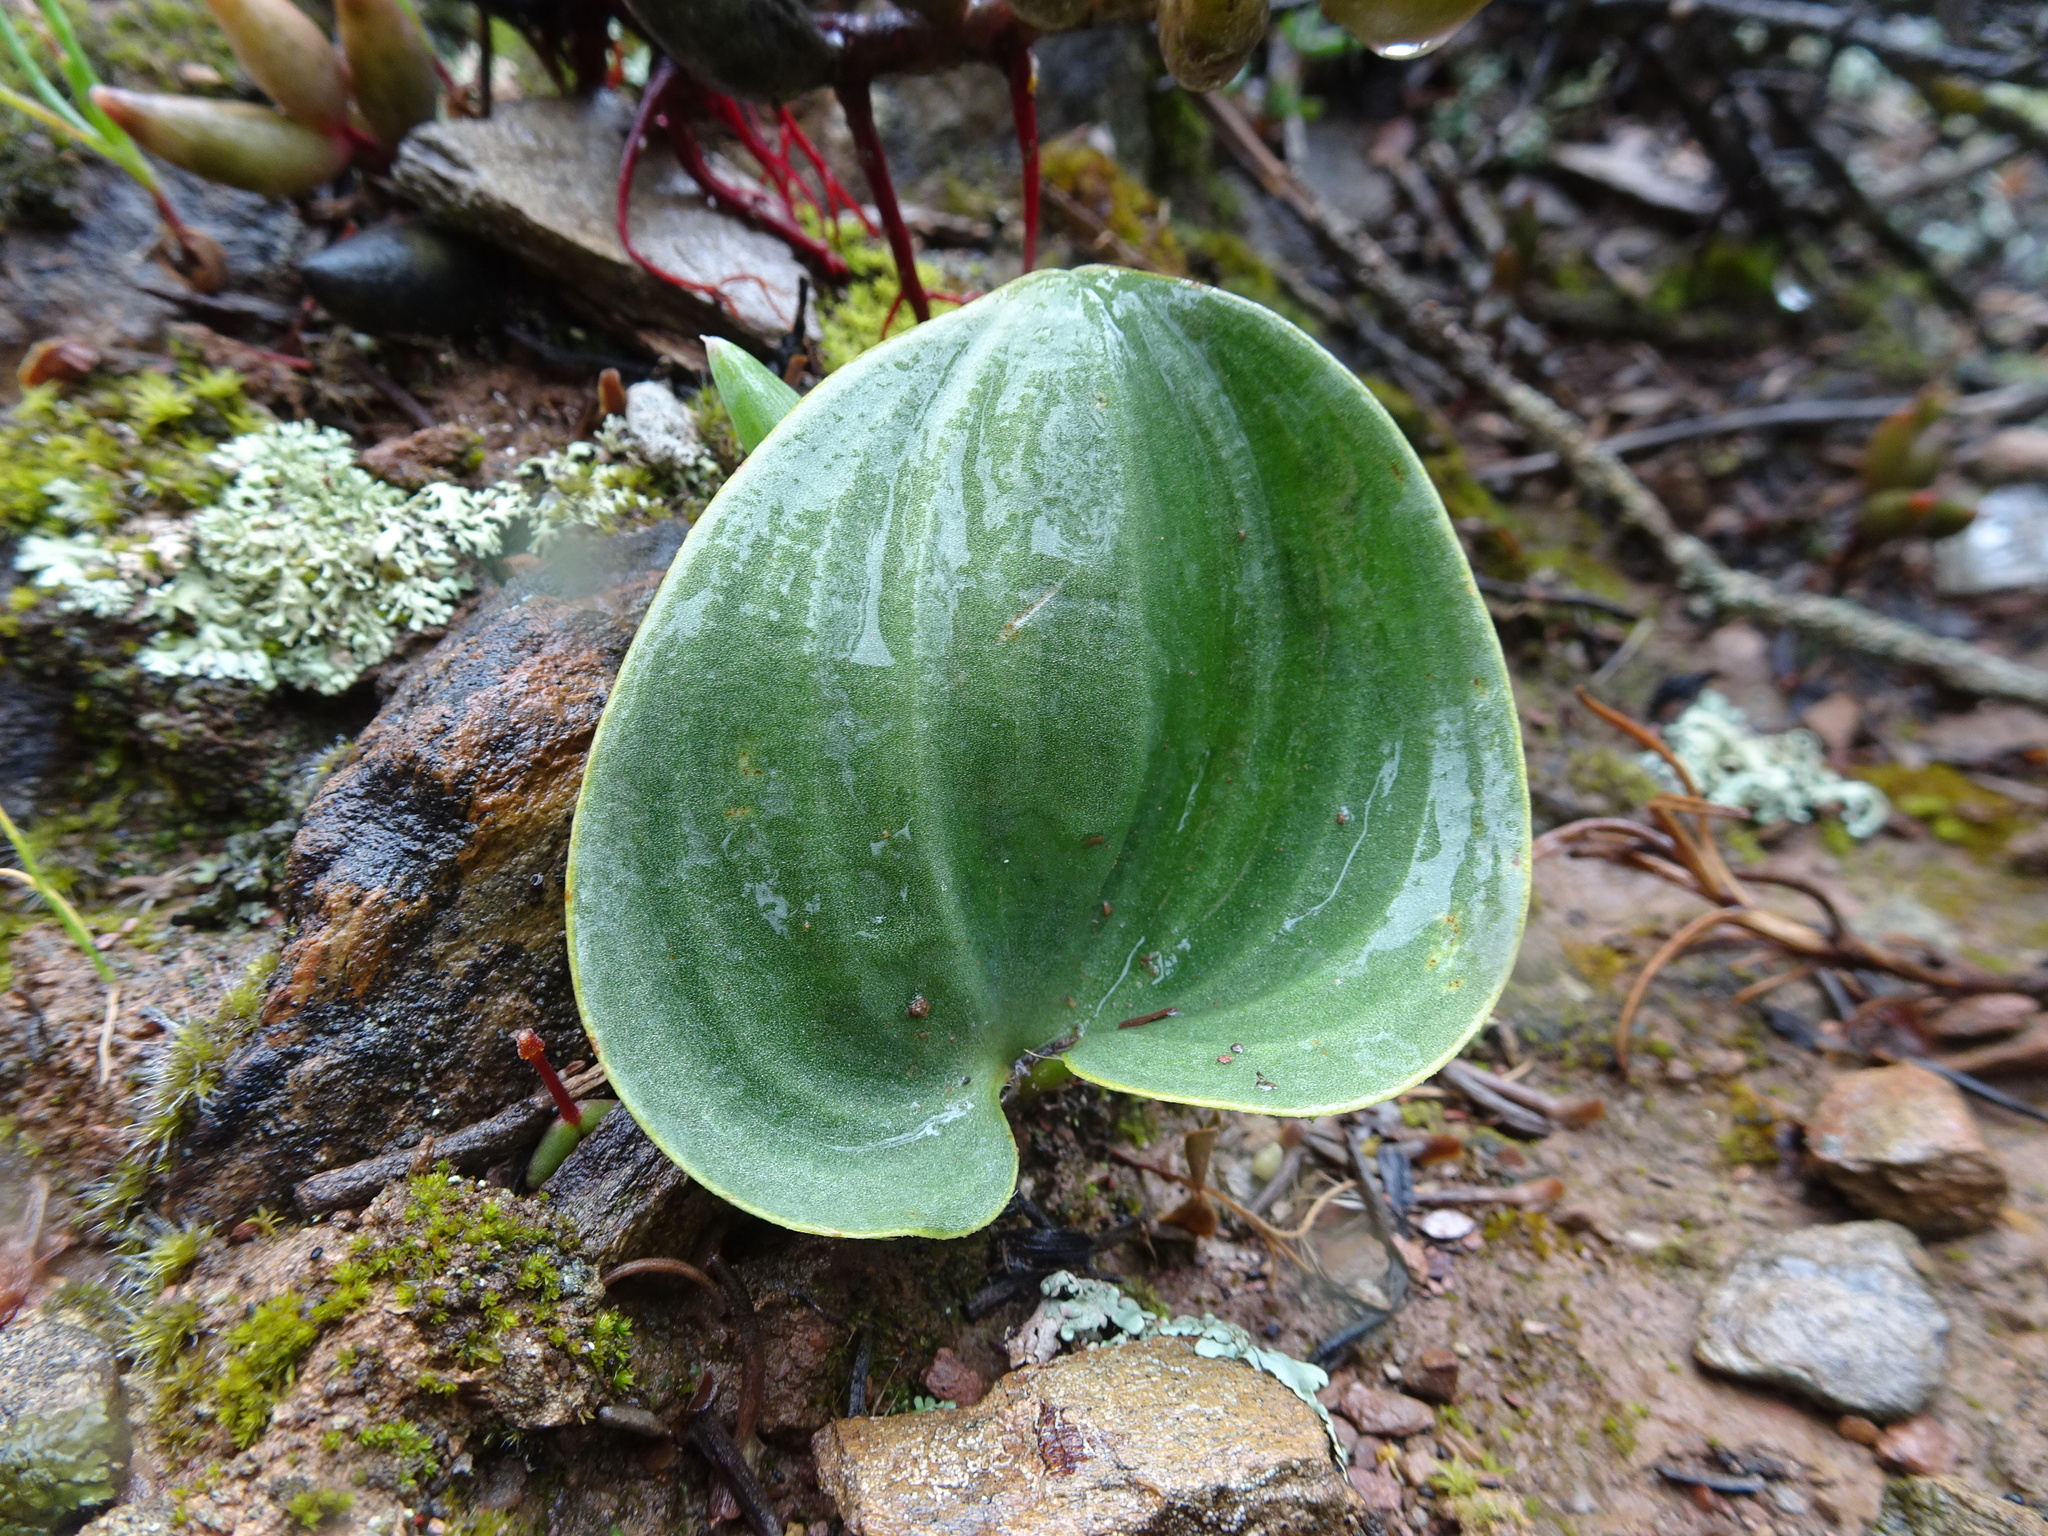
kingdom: Plantae
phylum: Tracheophyta
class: Liliopsida
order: Asparagales
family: Asparagaceae
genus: Eriospermum
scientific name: Eriospermum capense
